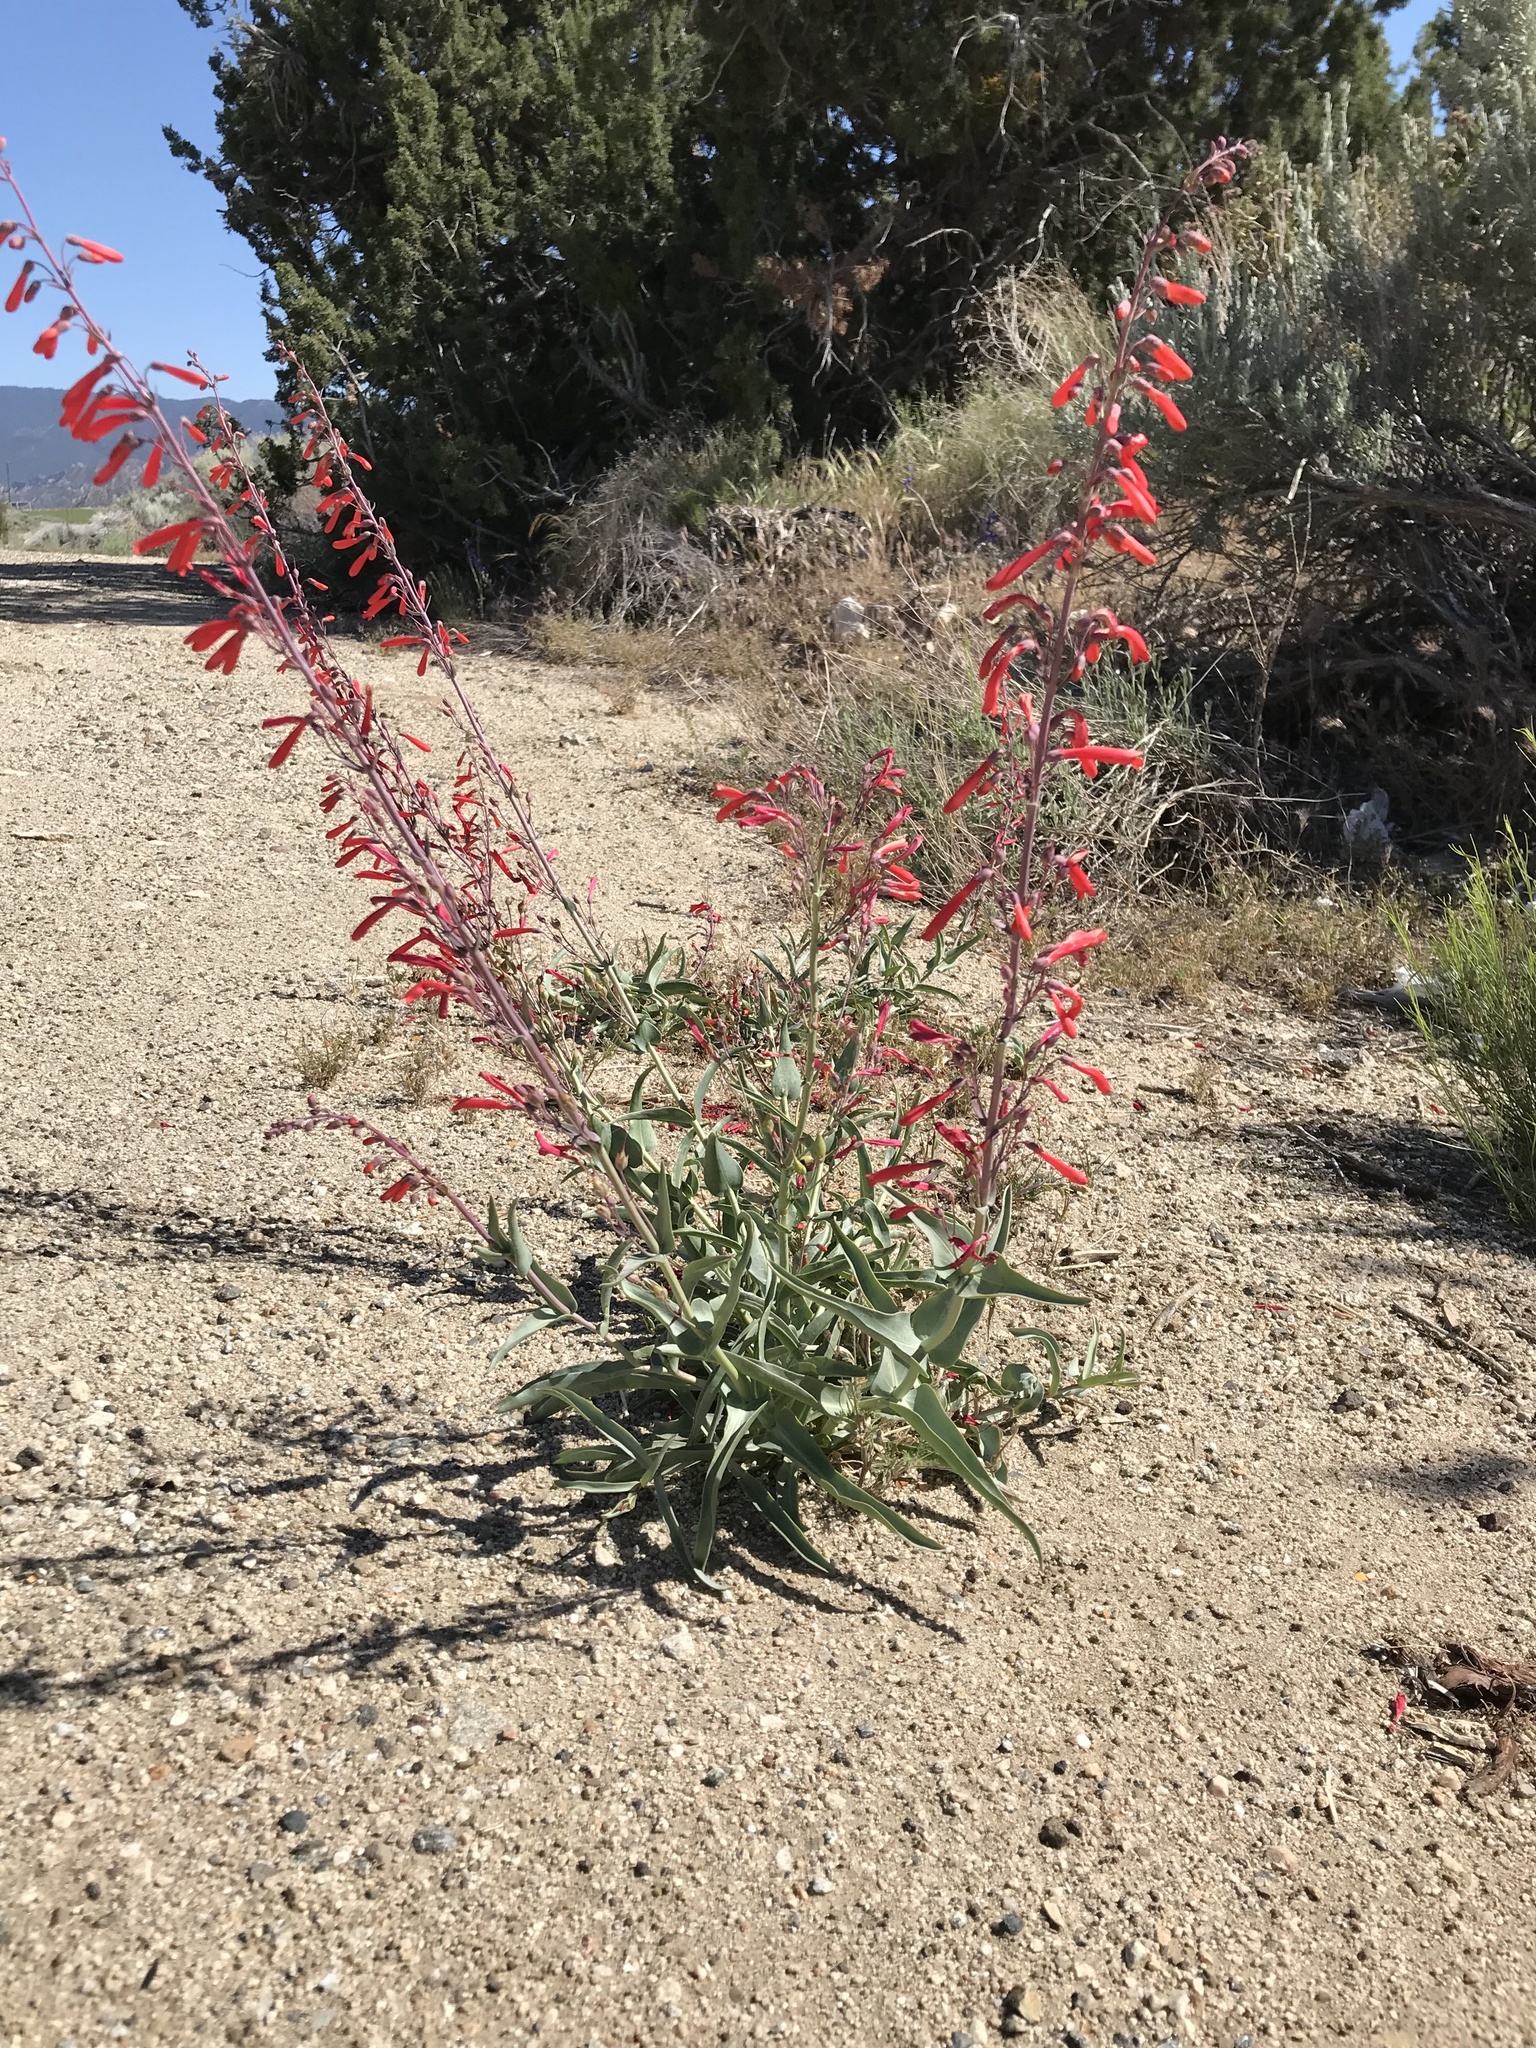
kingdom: Plantae
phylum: Tracheophyta
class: Magnoliopsida
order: Lamiales
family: Plantaginaceae
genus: Penstemon
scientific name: Penstemon centranthifolius
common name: Scarlet bugler
